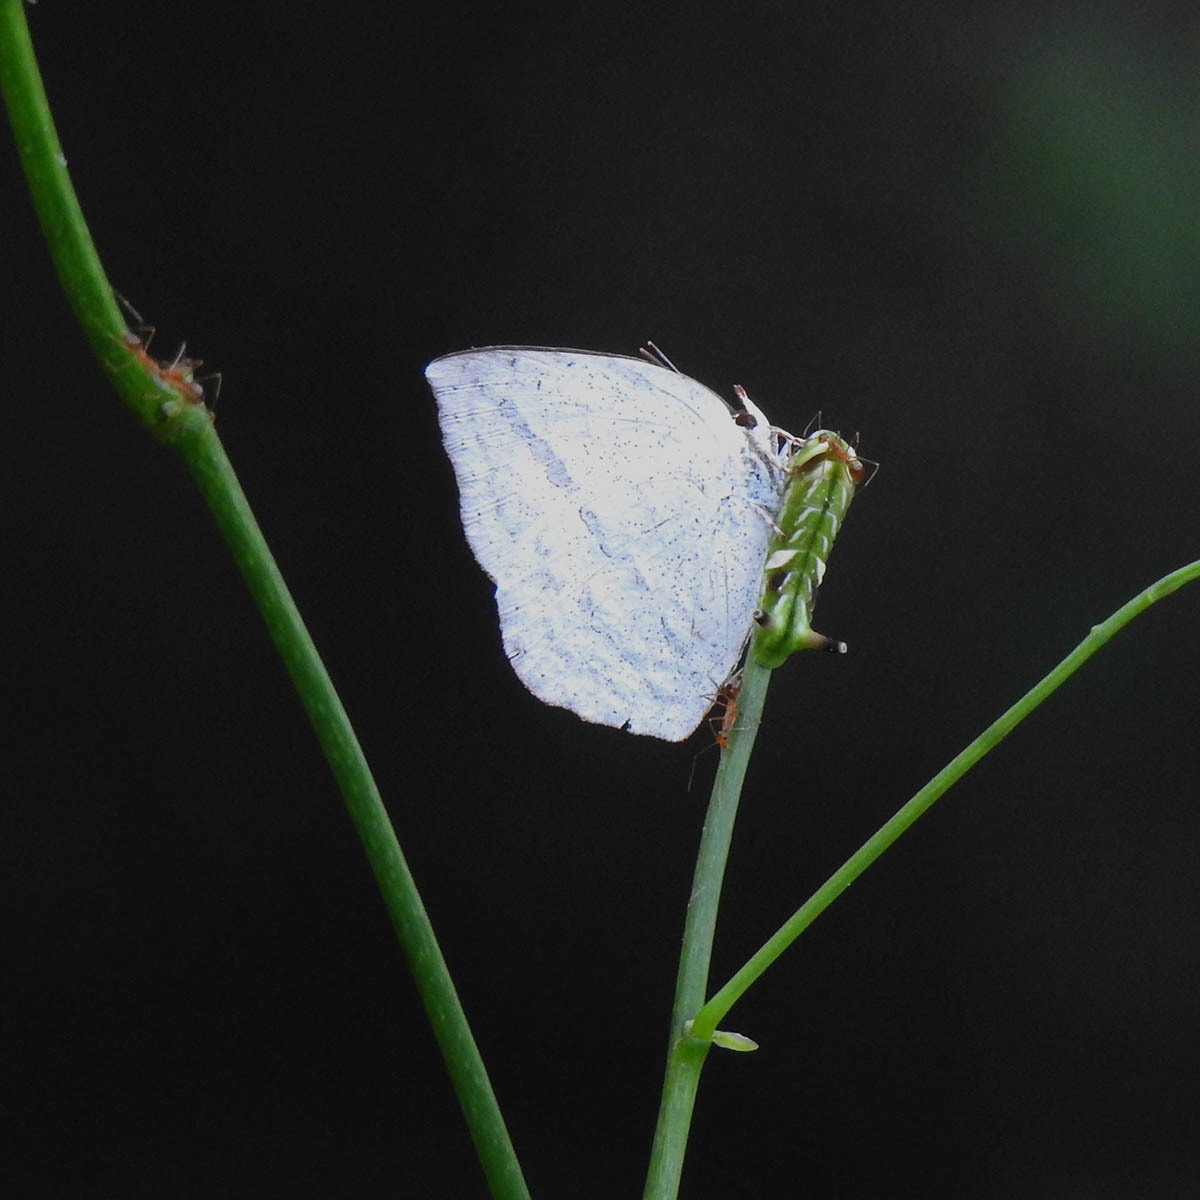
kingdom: Animalia
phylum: Arthropoda
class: Insecta
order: Lepidoptera
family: Lycaenidae
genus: Curetis
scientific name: Curetis acuta
